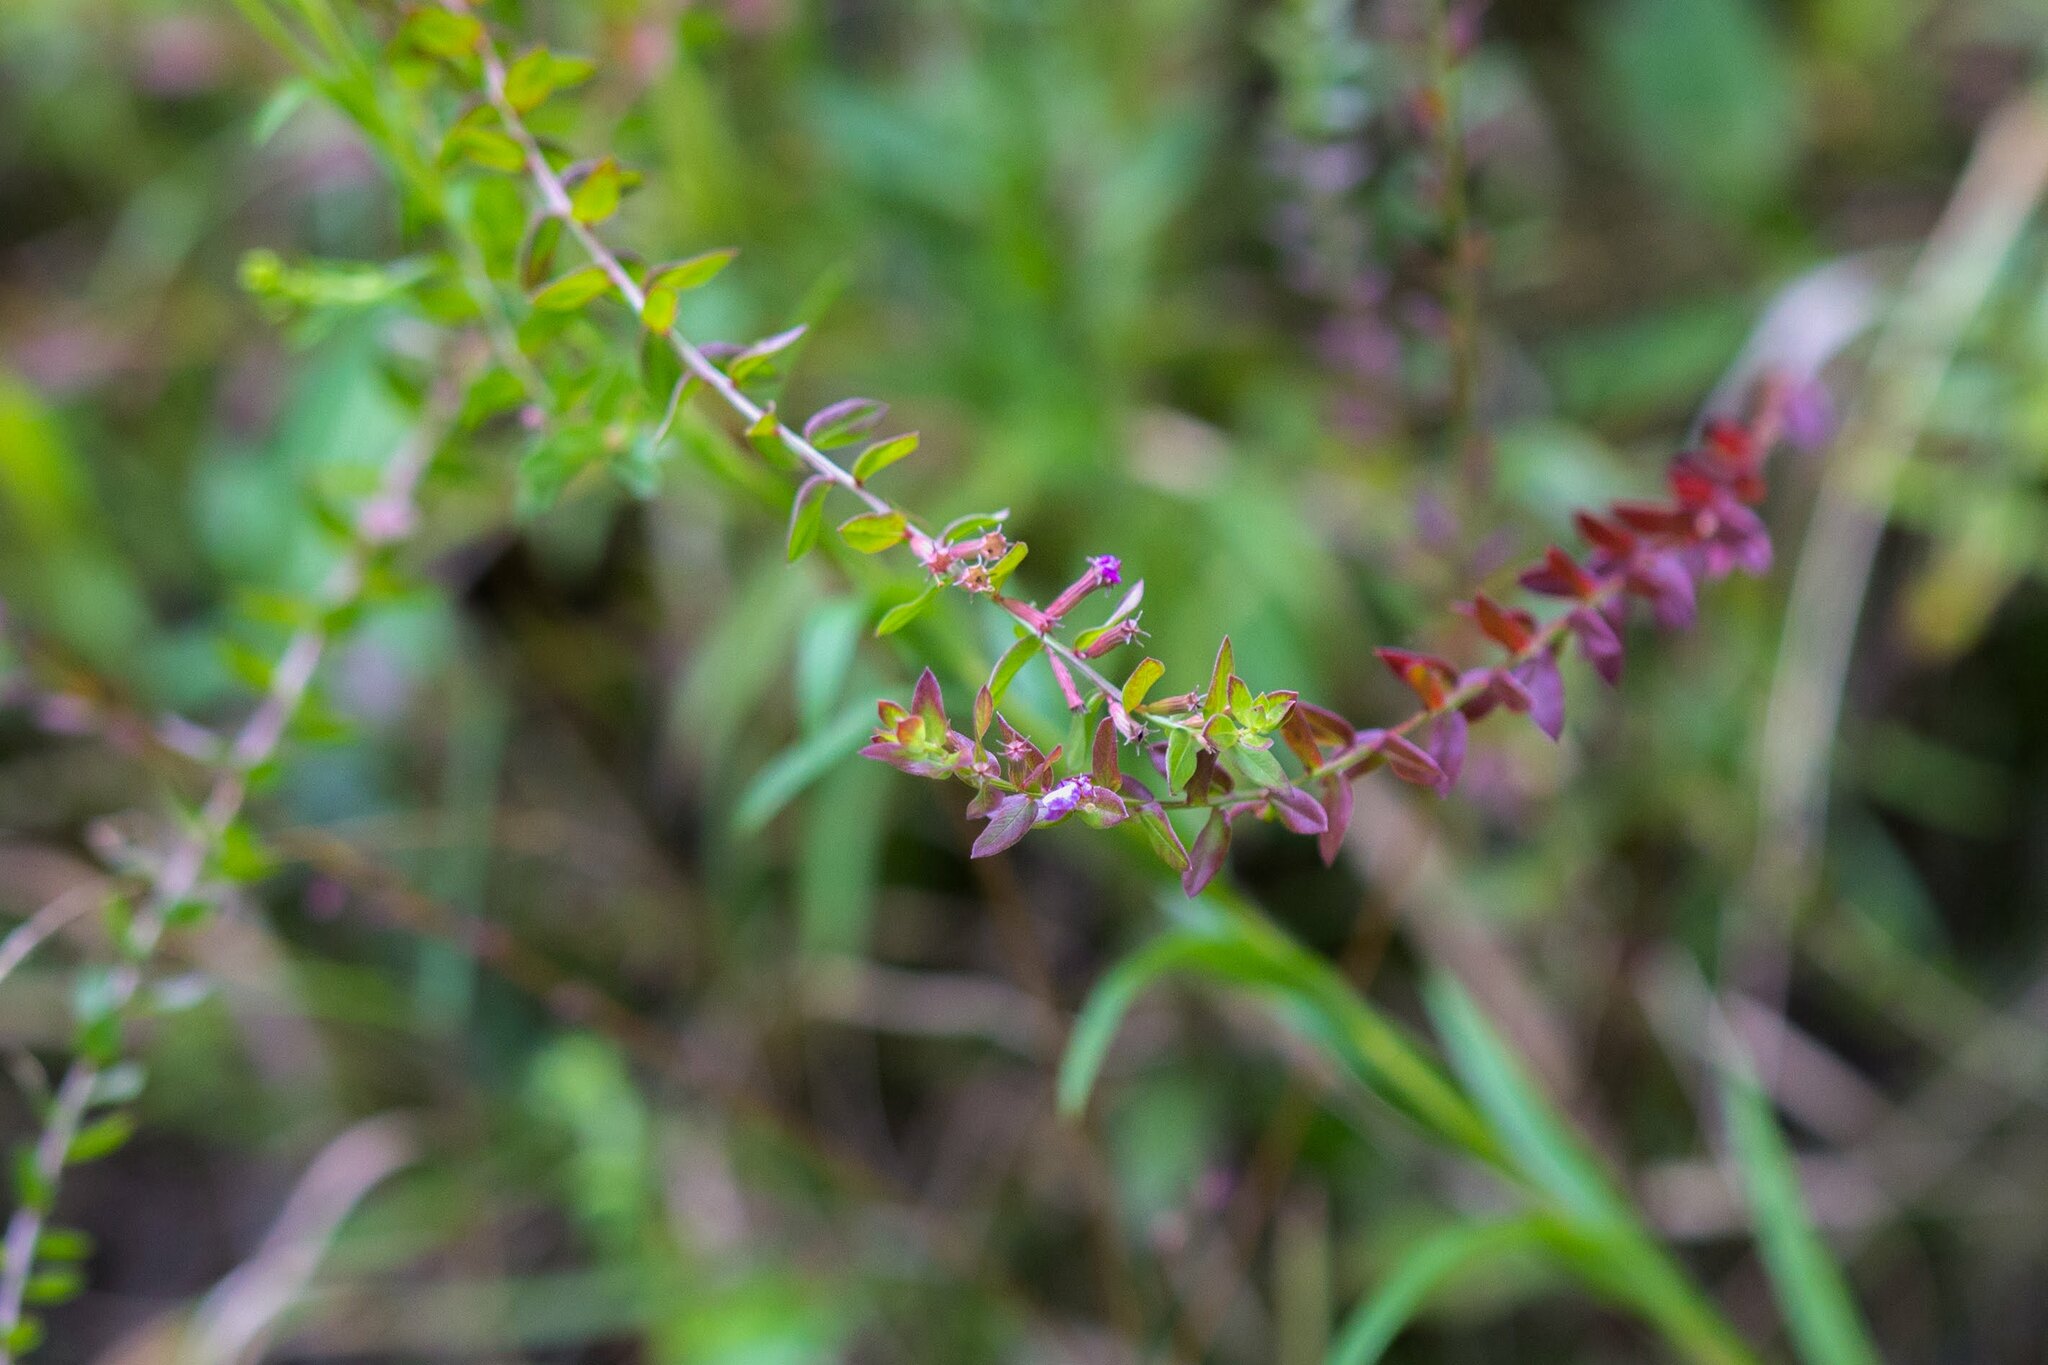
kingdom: Plantae
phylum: Tracheophyta
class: Magnoliopsida
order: Myrtales
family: Lythraceae
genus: Lythrum
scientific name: Lythrum alatum
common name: Winged loosestrife
